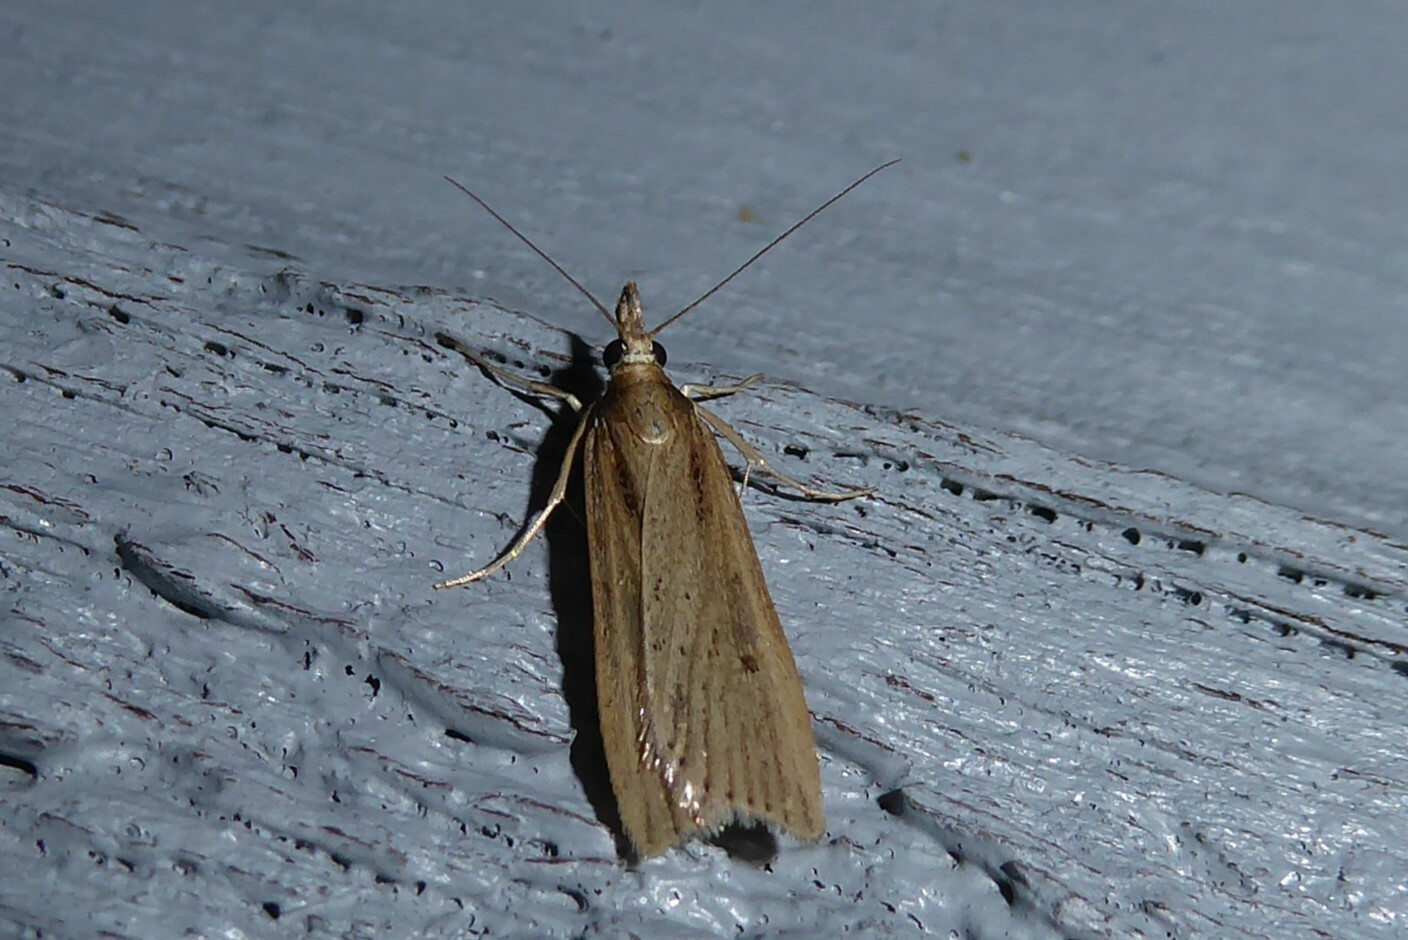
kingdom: Animalia
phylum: Arthropoda
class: Insecta
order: Lepidoptera
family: Crambidae
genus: Eudonia
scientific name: Eudonia sabulosella
